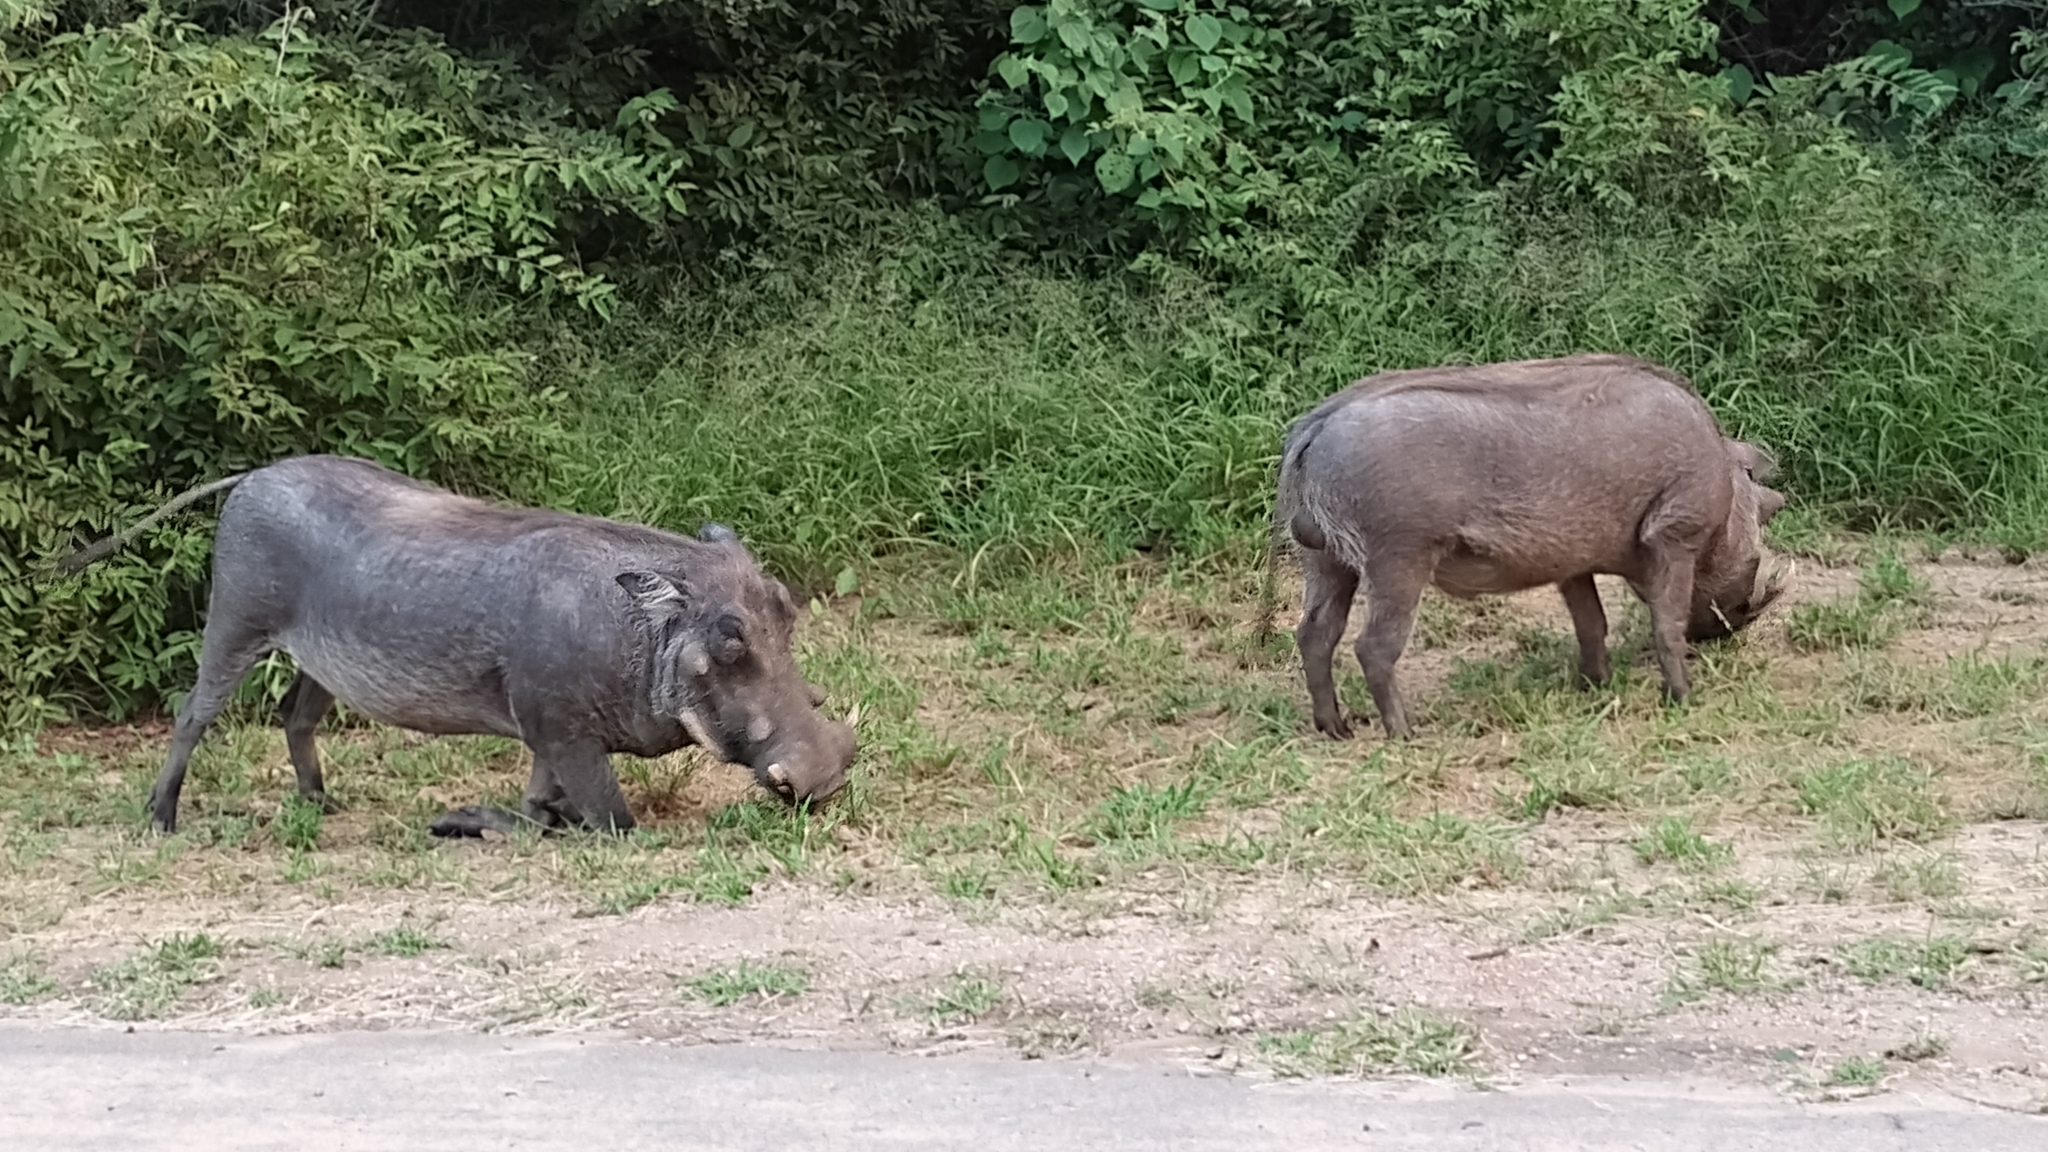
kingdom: Animalia
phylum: Chordata
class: Mammalia
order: Artiodactyla
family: Suidae
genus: Phacochoerus
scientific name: Phacochoerus africanus
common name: Common warthog
